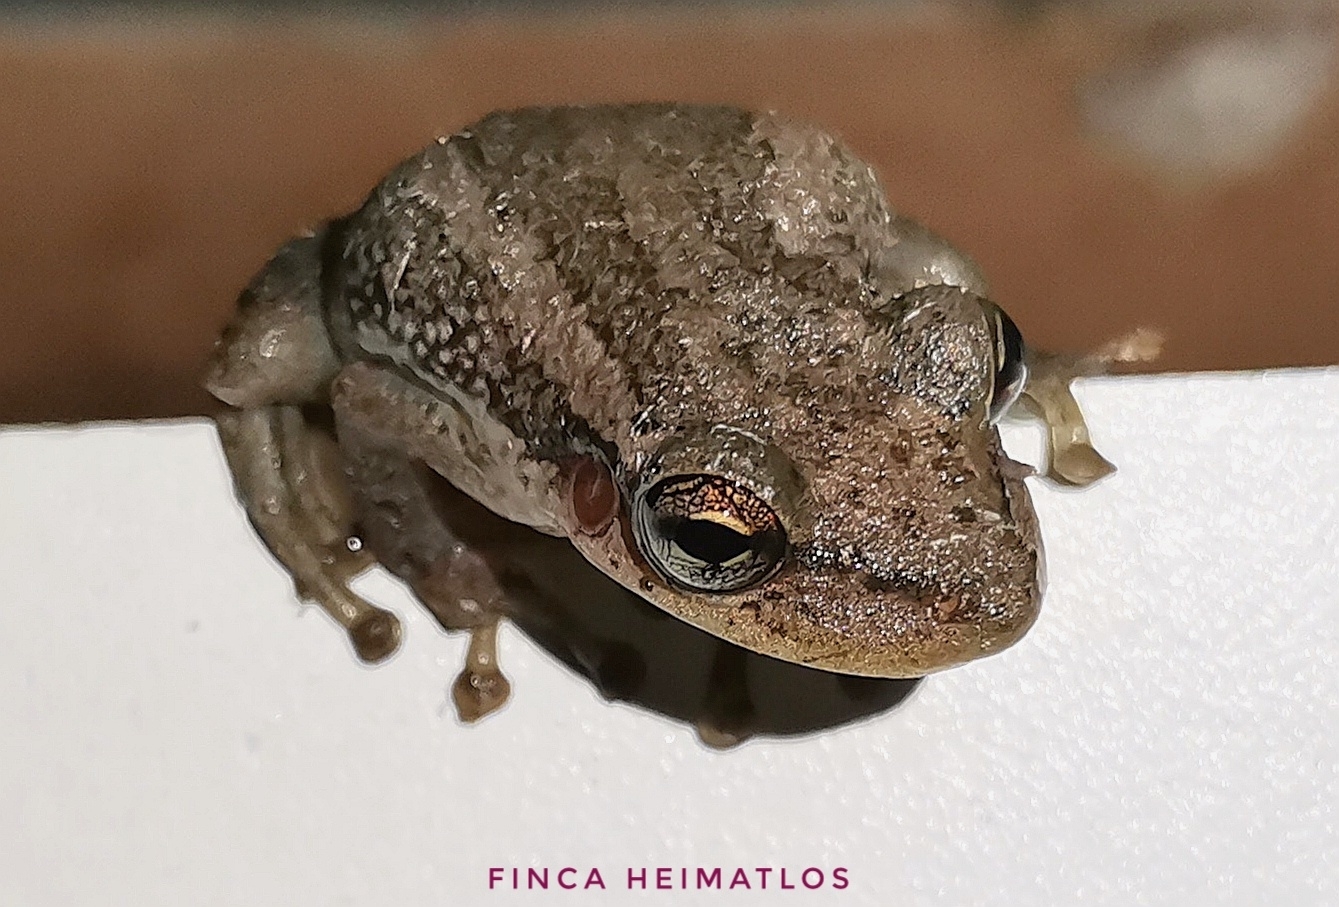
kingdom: Animalia
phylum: Chordata
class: Amphibia
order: Anura
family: Hylidae
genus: Scinax
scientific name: Scinax ruber
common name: Red snouted treefrog
